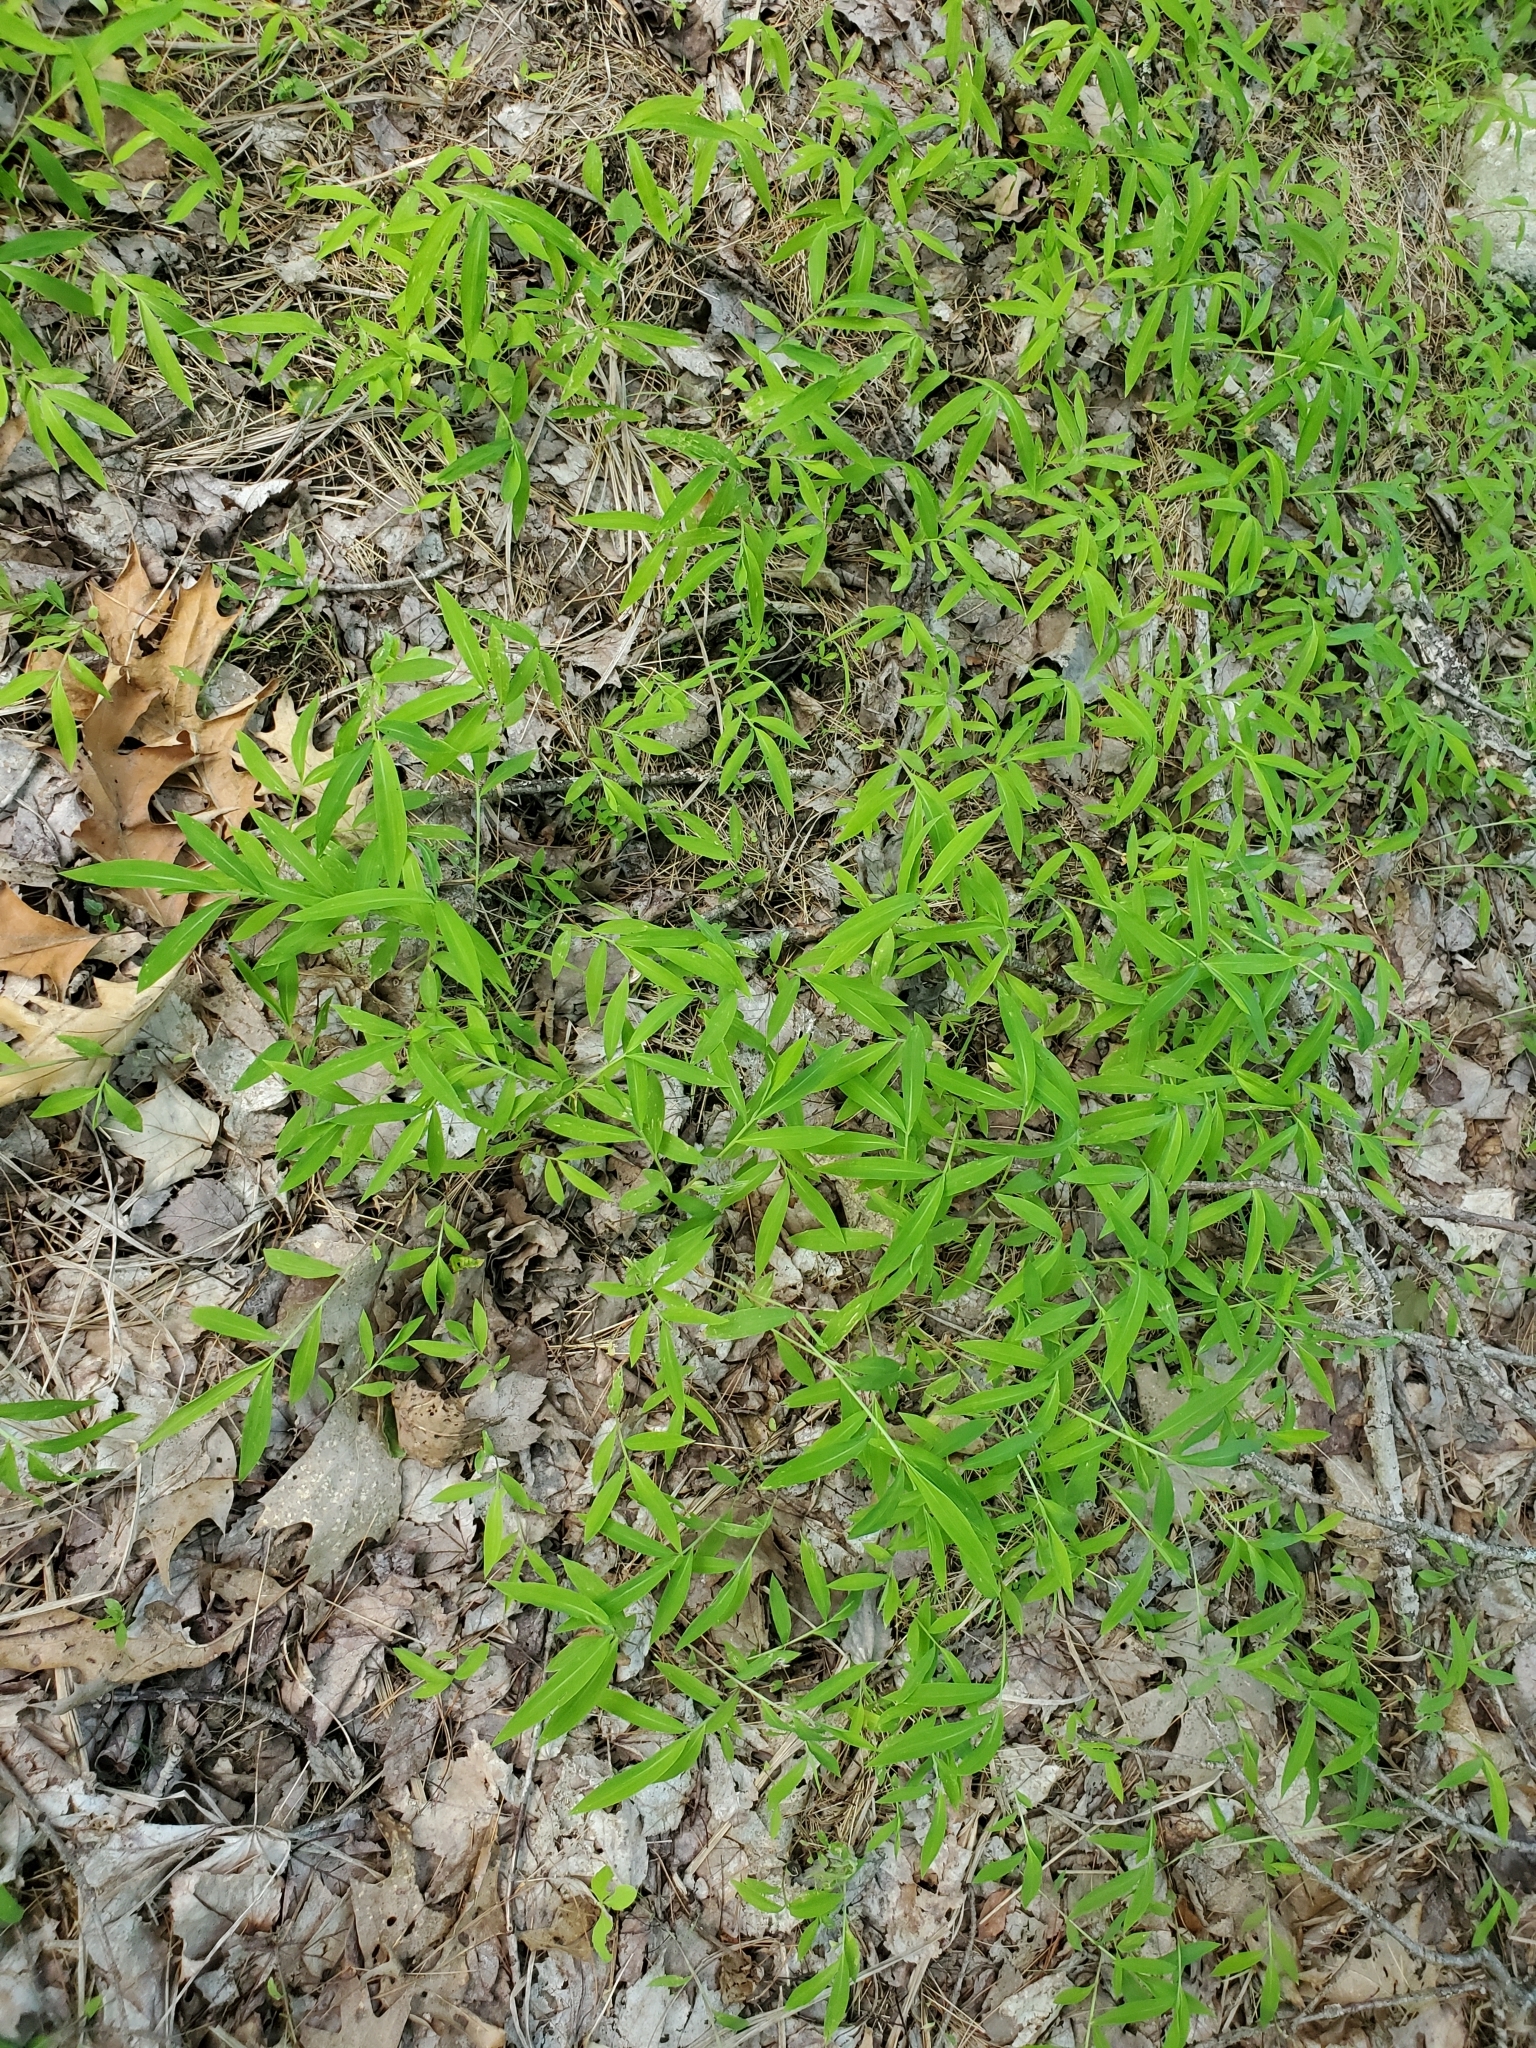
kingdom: Plantae
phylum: Tracheophyta
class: Liliopsida
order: Poales
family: Poaceae
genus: Microstegium
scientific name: Microstegium vimineum
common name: Japanese stiltgrass
